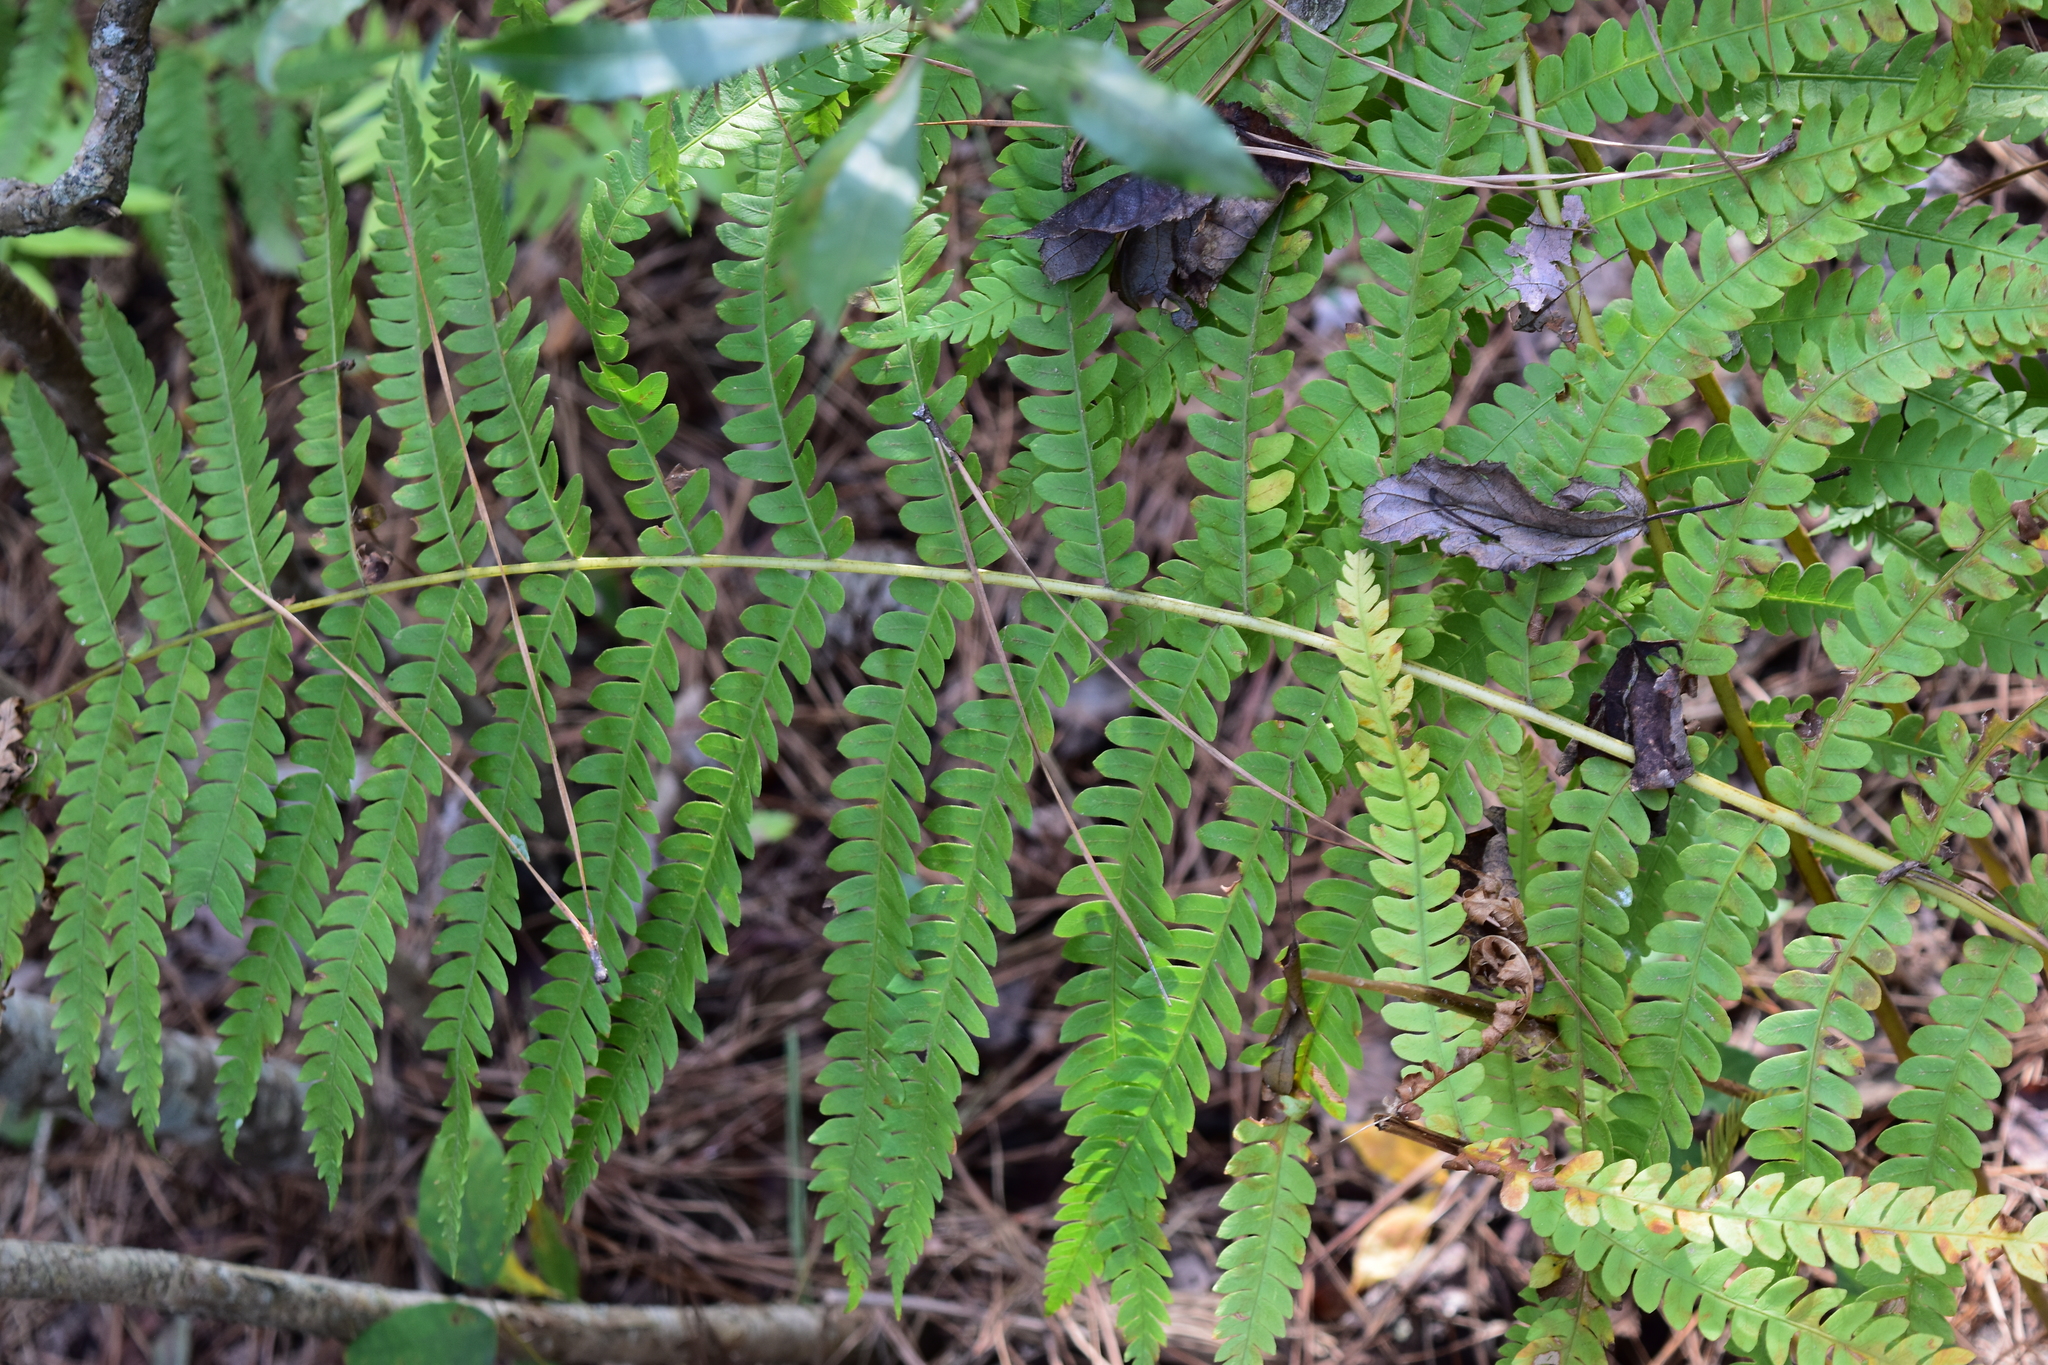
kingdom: Plantae
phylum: Tracheophyta
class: Polypodiopsida
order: Osmundales
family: Osmundaceae
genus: Osmundastrum
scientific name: Osmundastrum cinnamomeum
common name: Cinnamon fern
